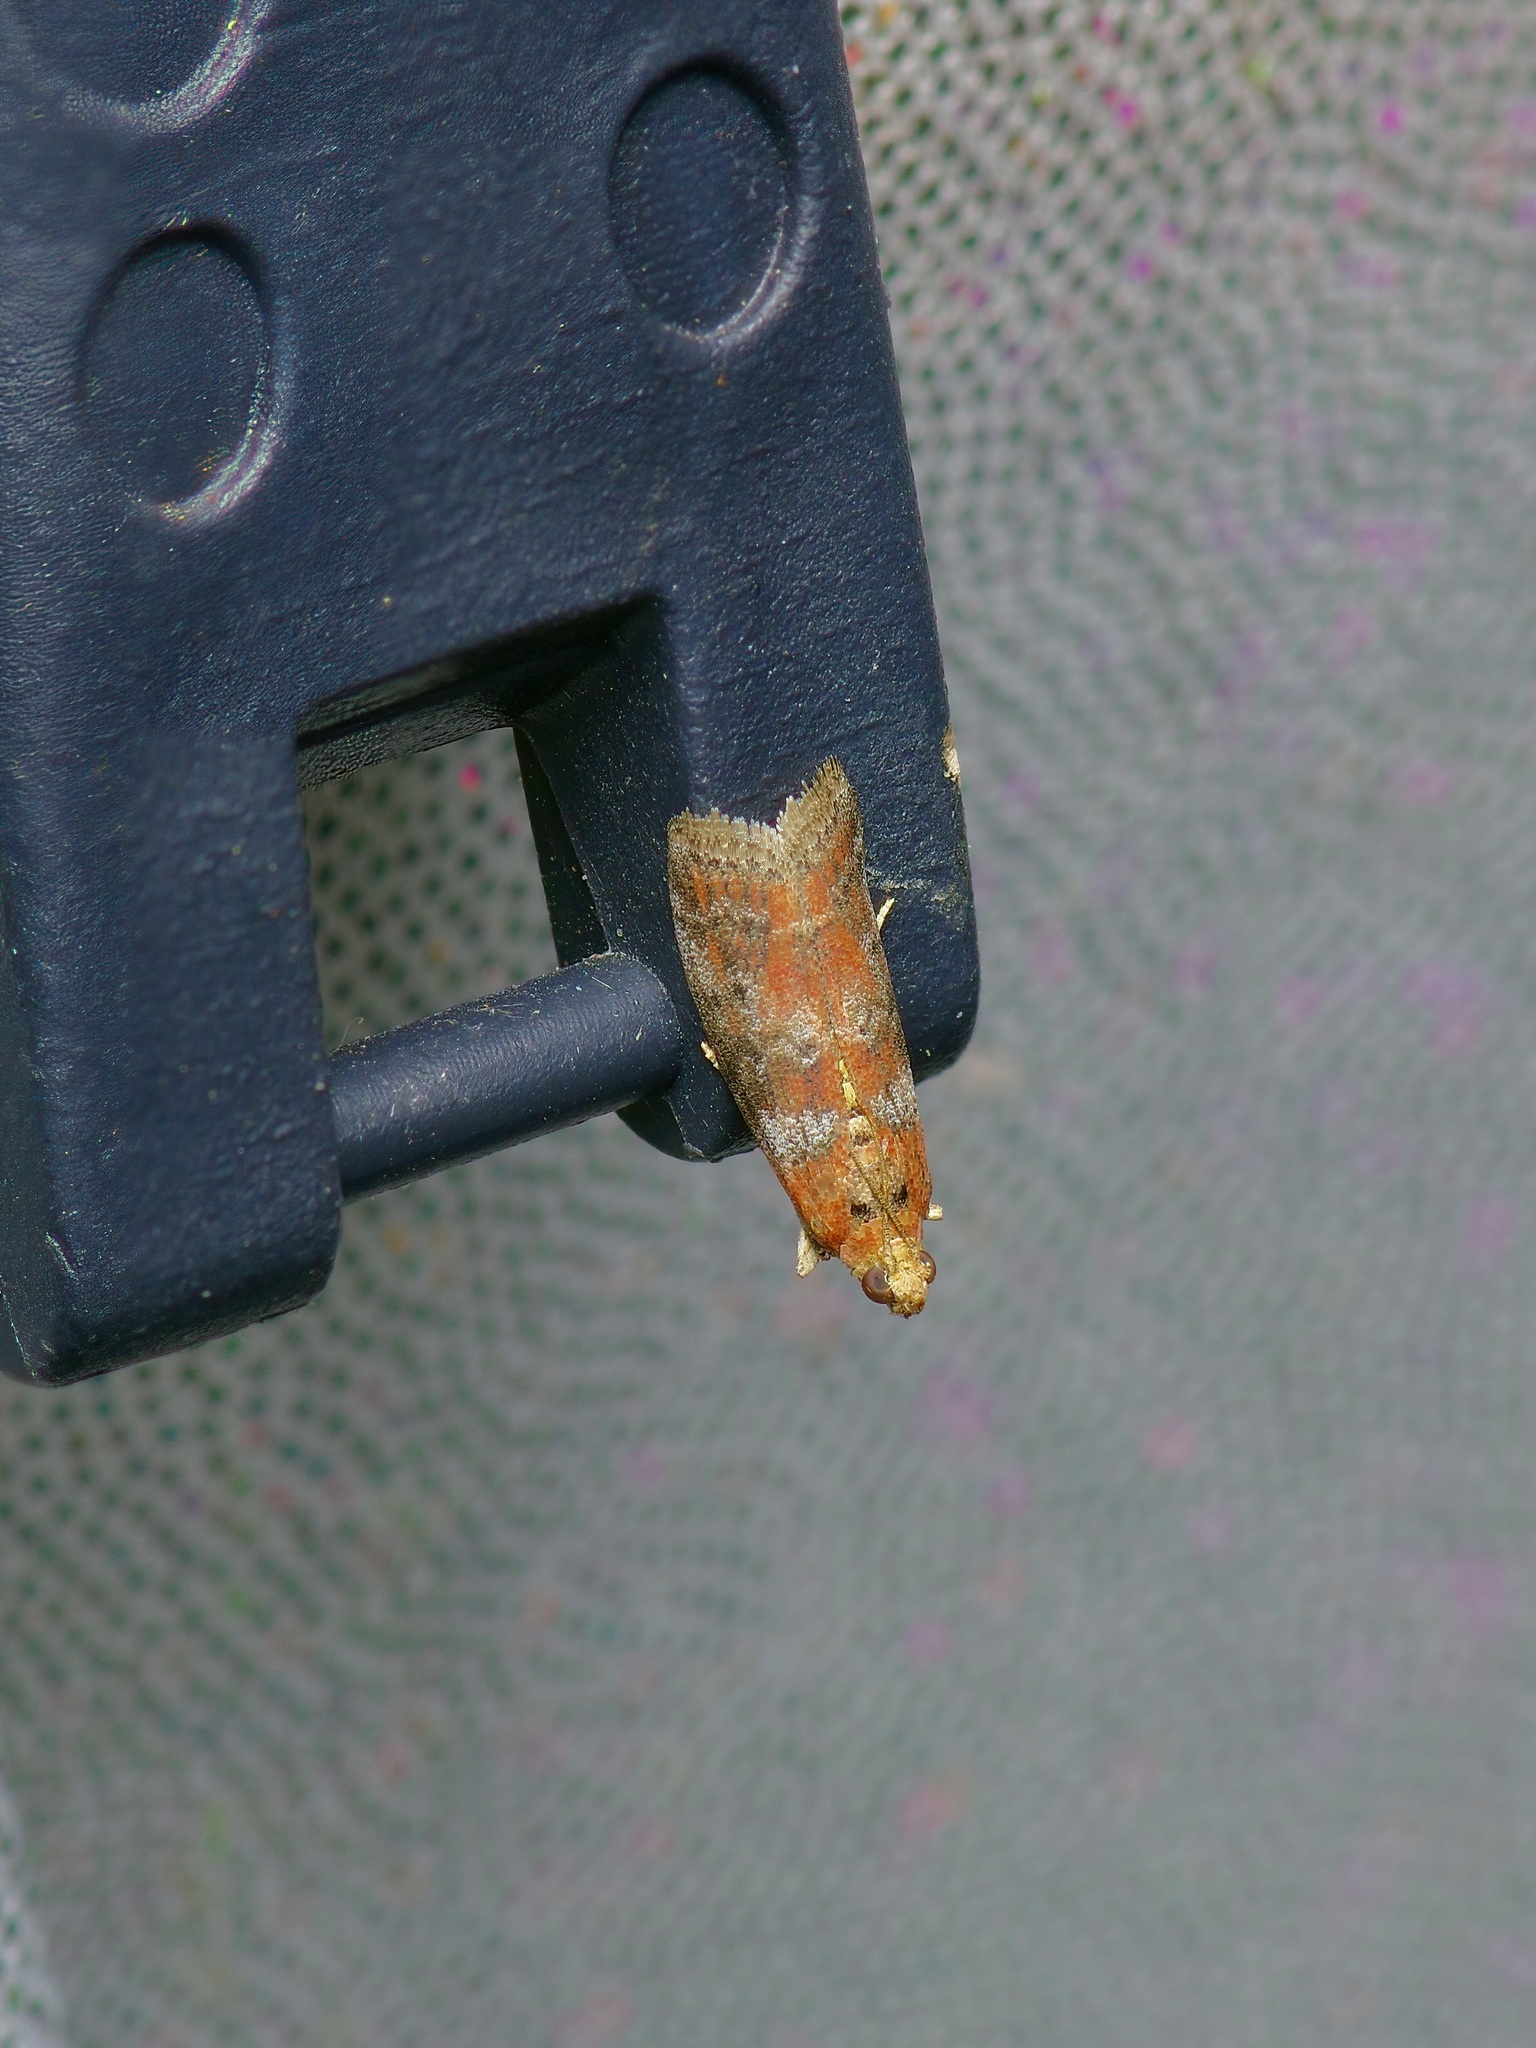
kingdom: Animalia
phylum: Arthropoda
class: Insecta
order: Lepidoptera
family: Pyralidae
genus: Sciota
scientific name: Sciota
